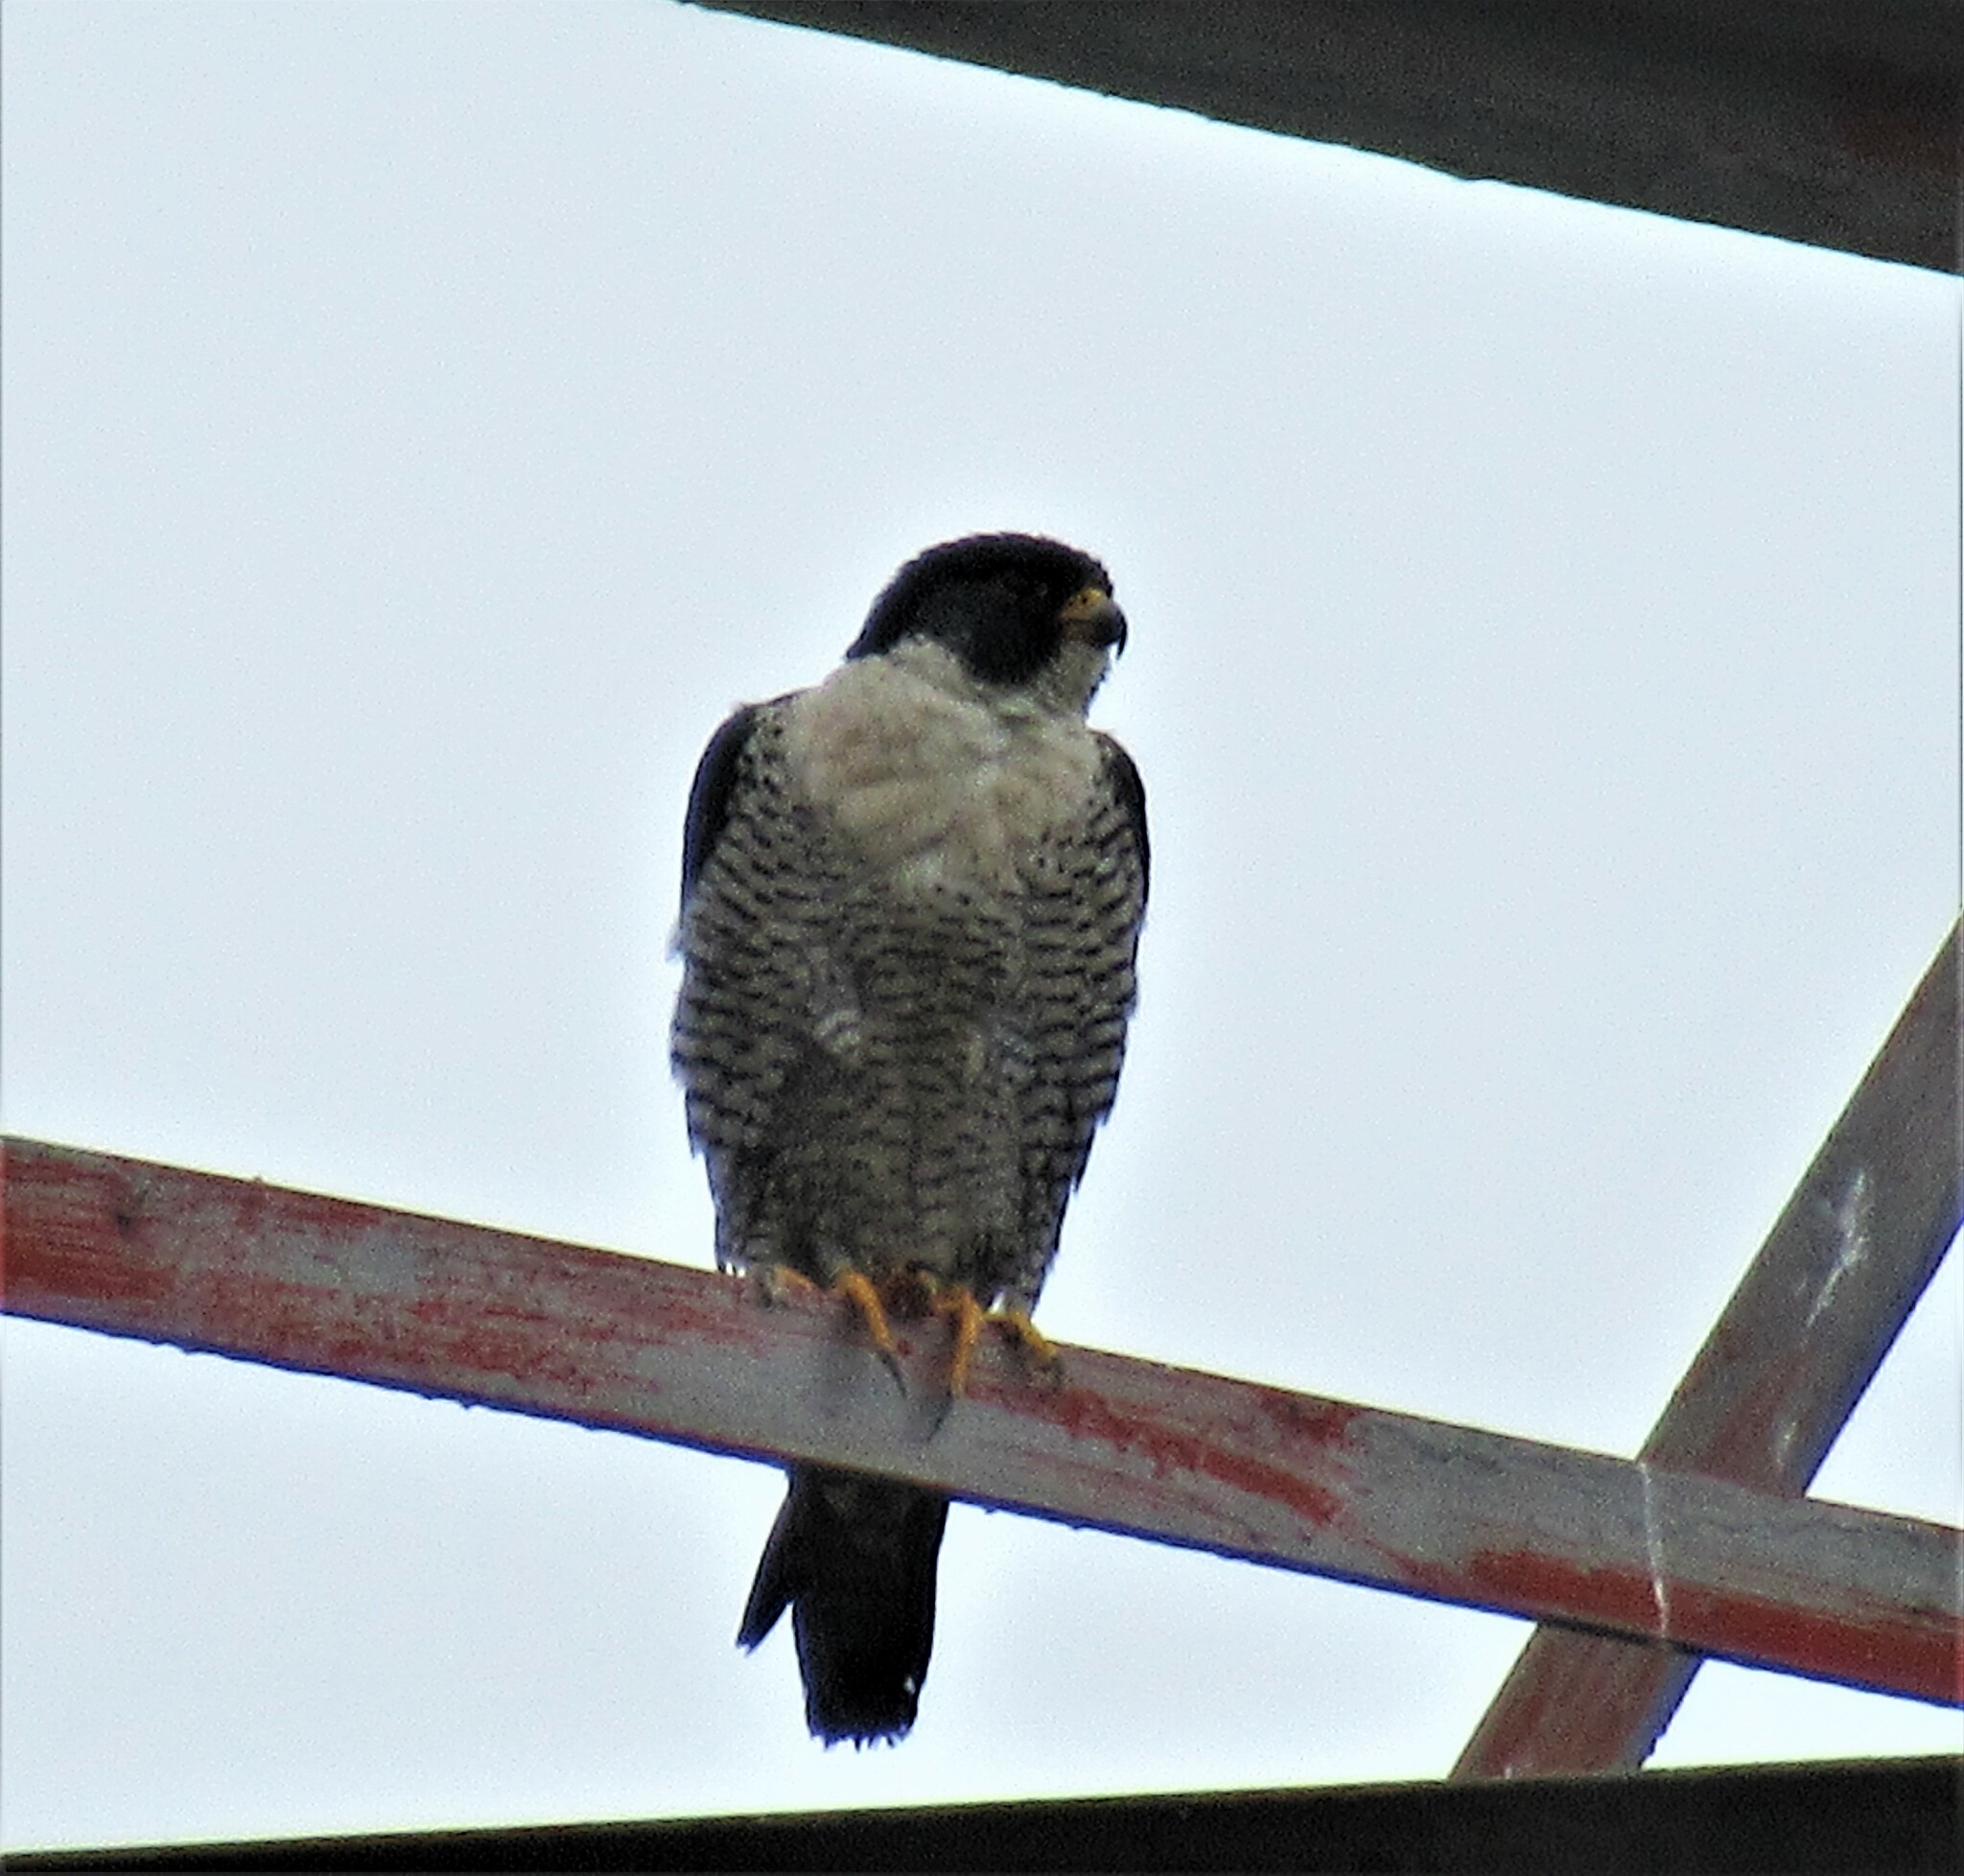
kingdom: Animalia
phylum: Chordata
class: Aves
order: Falconiformes
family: Falconidae
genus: Falco
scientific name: Falco peregrinus
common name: Peregrine falcon
